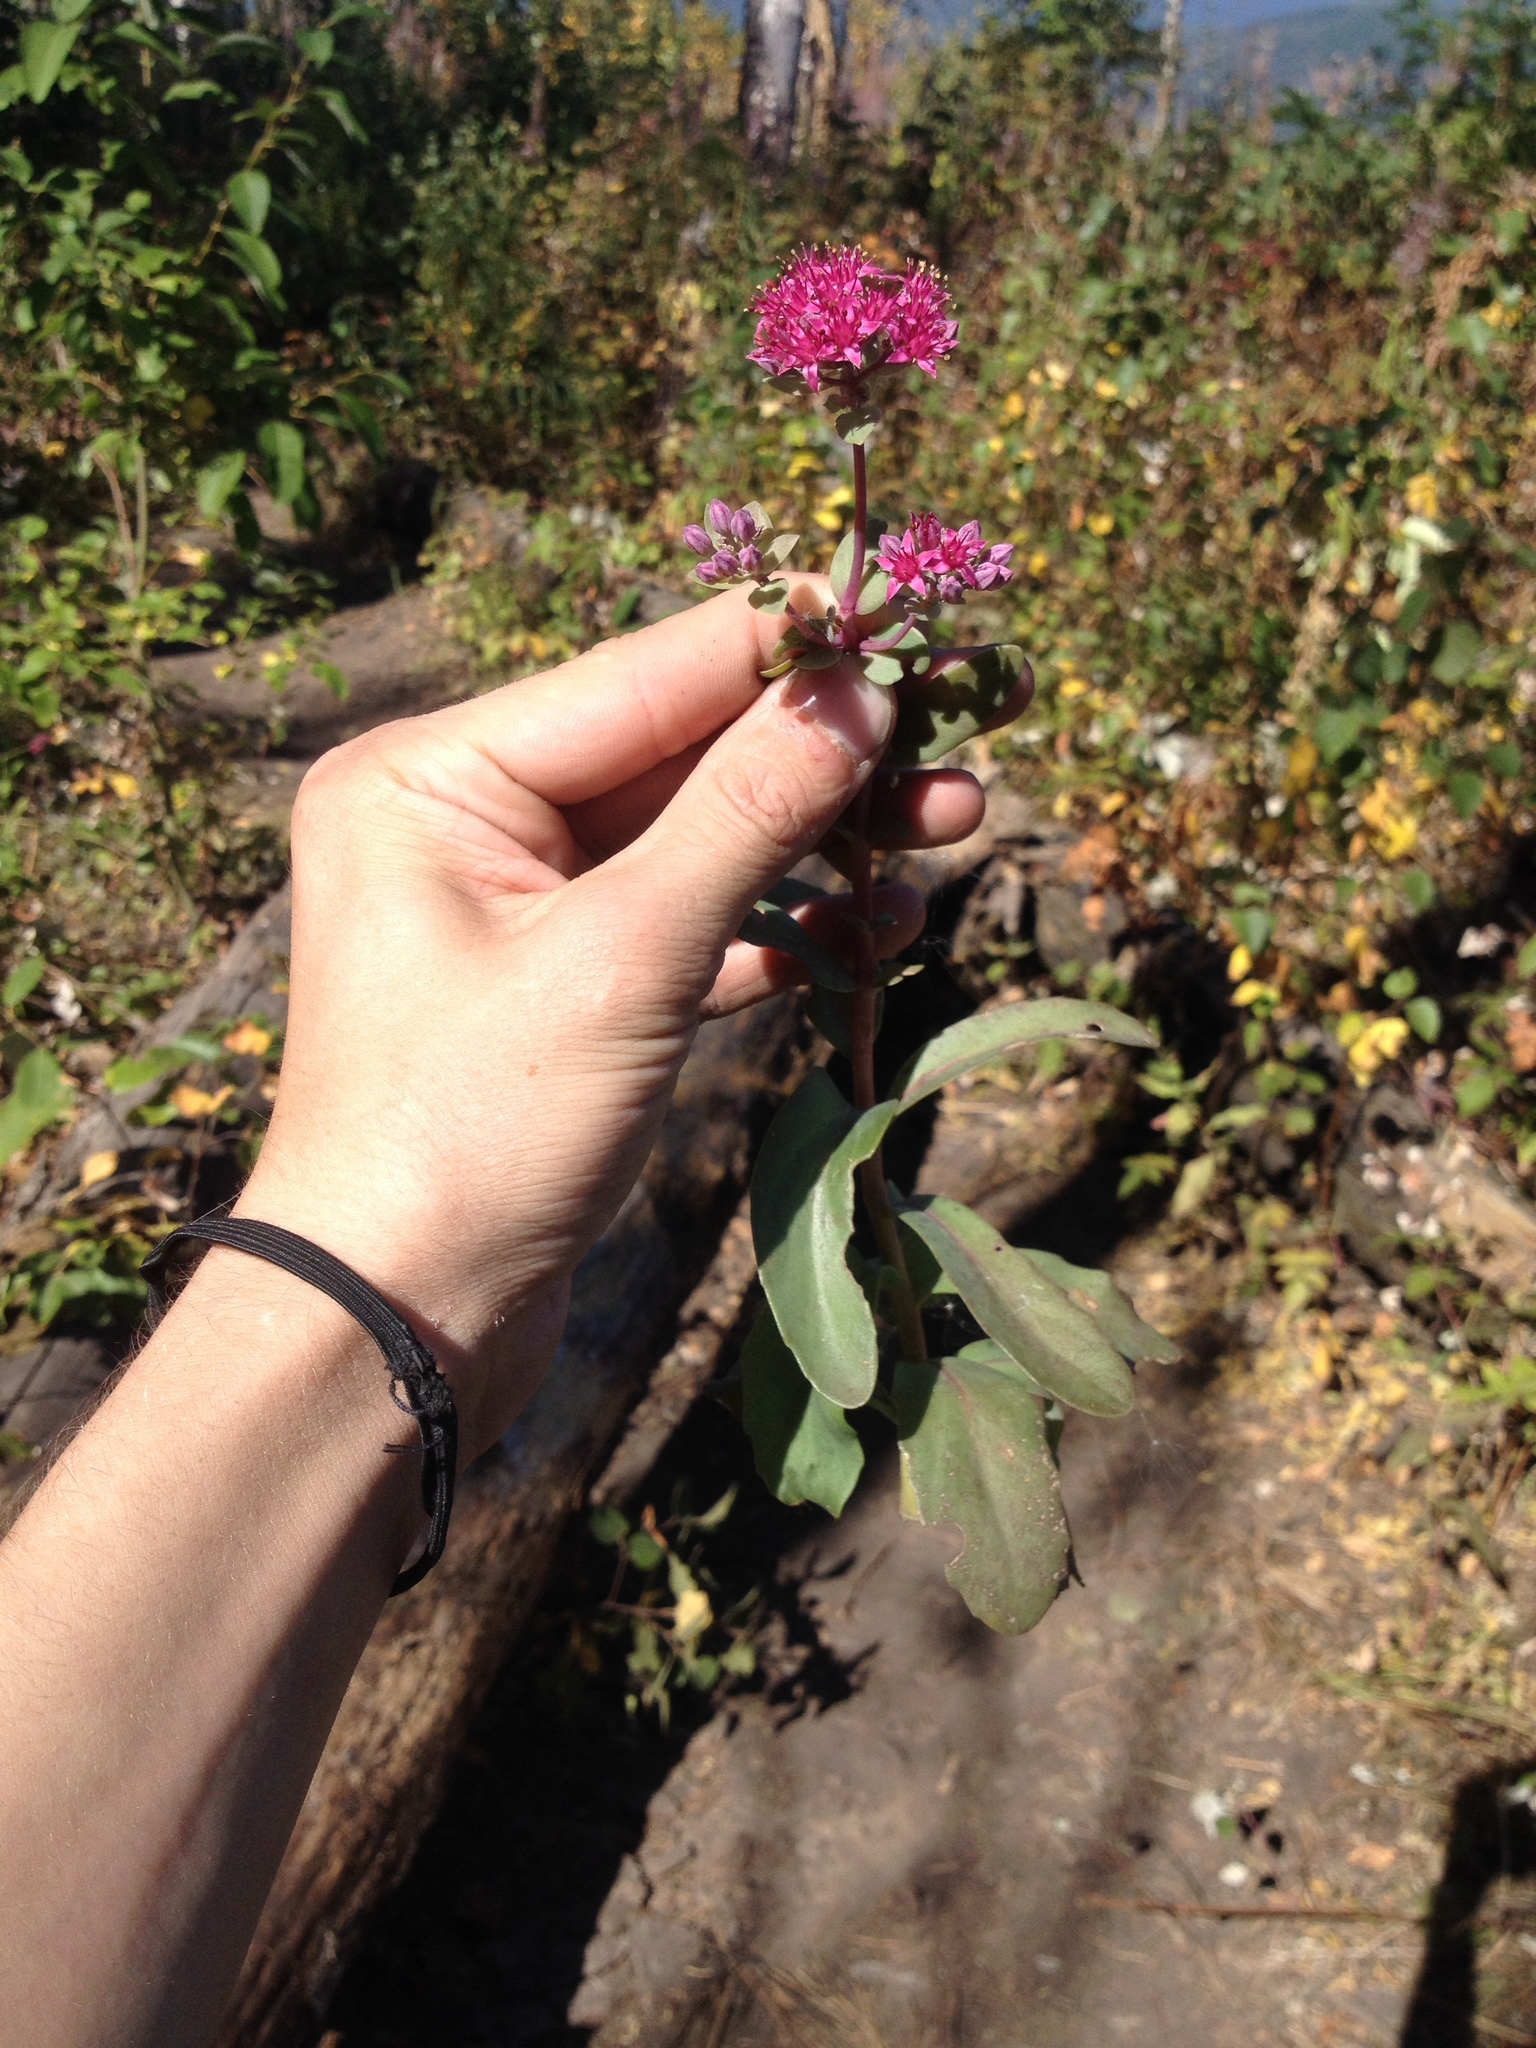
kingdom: Plantae
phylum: Tracheophyta
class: Magnoliopsida
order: Saxifragales
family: Crassulaceae
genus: Hylotelephium
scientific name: Hylotelephium telephium
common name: Live-forever
